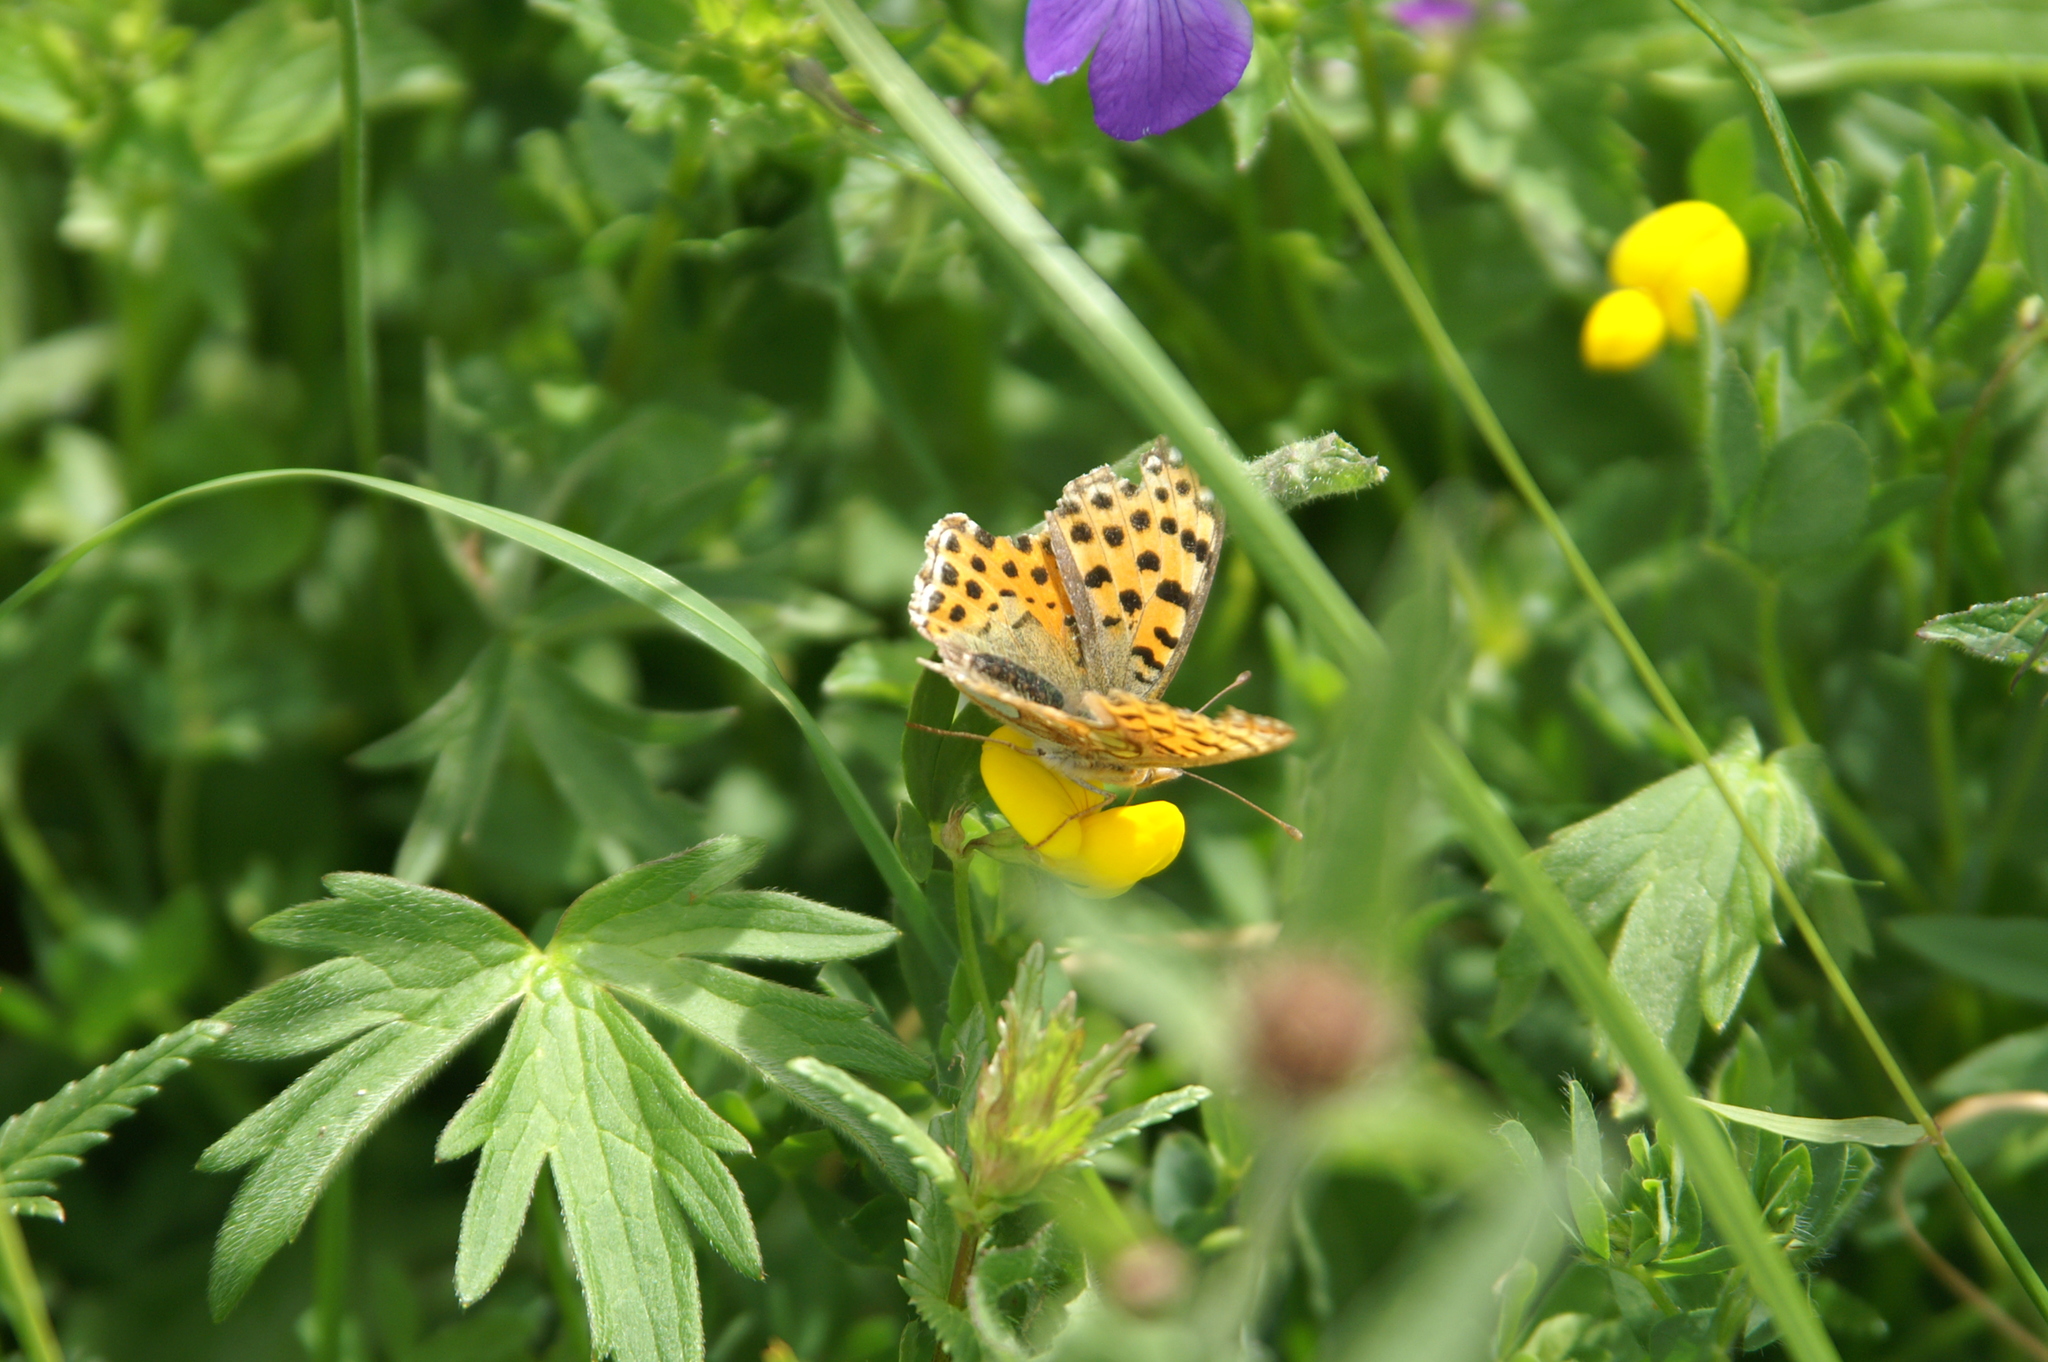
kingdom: Animalia
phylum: Arthropoda
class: Insecta
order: Lepidoptera
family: Nymphalidae
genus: Issoria
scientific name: Issoria lathonia
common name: Queen of spain fritillary
